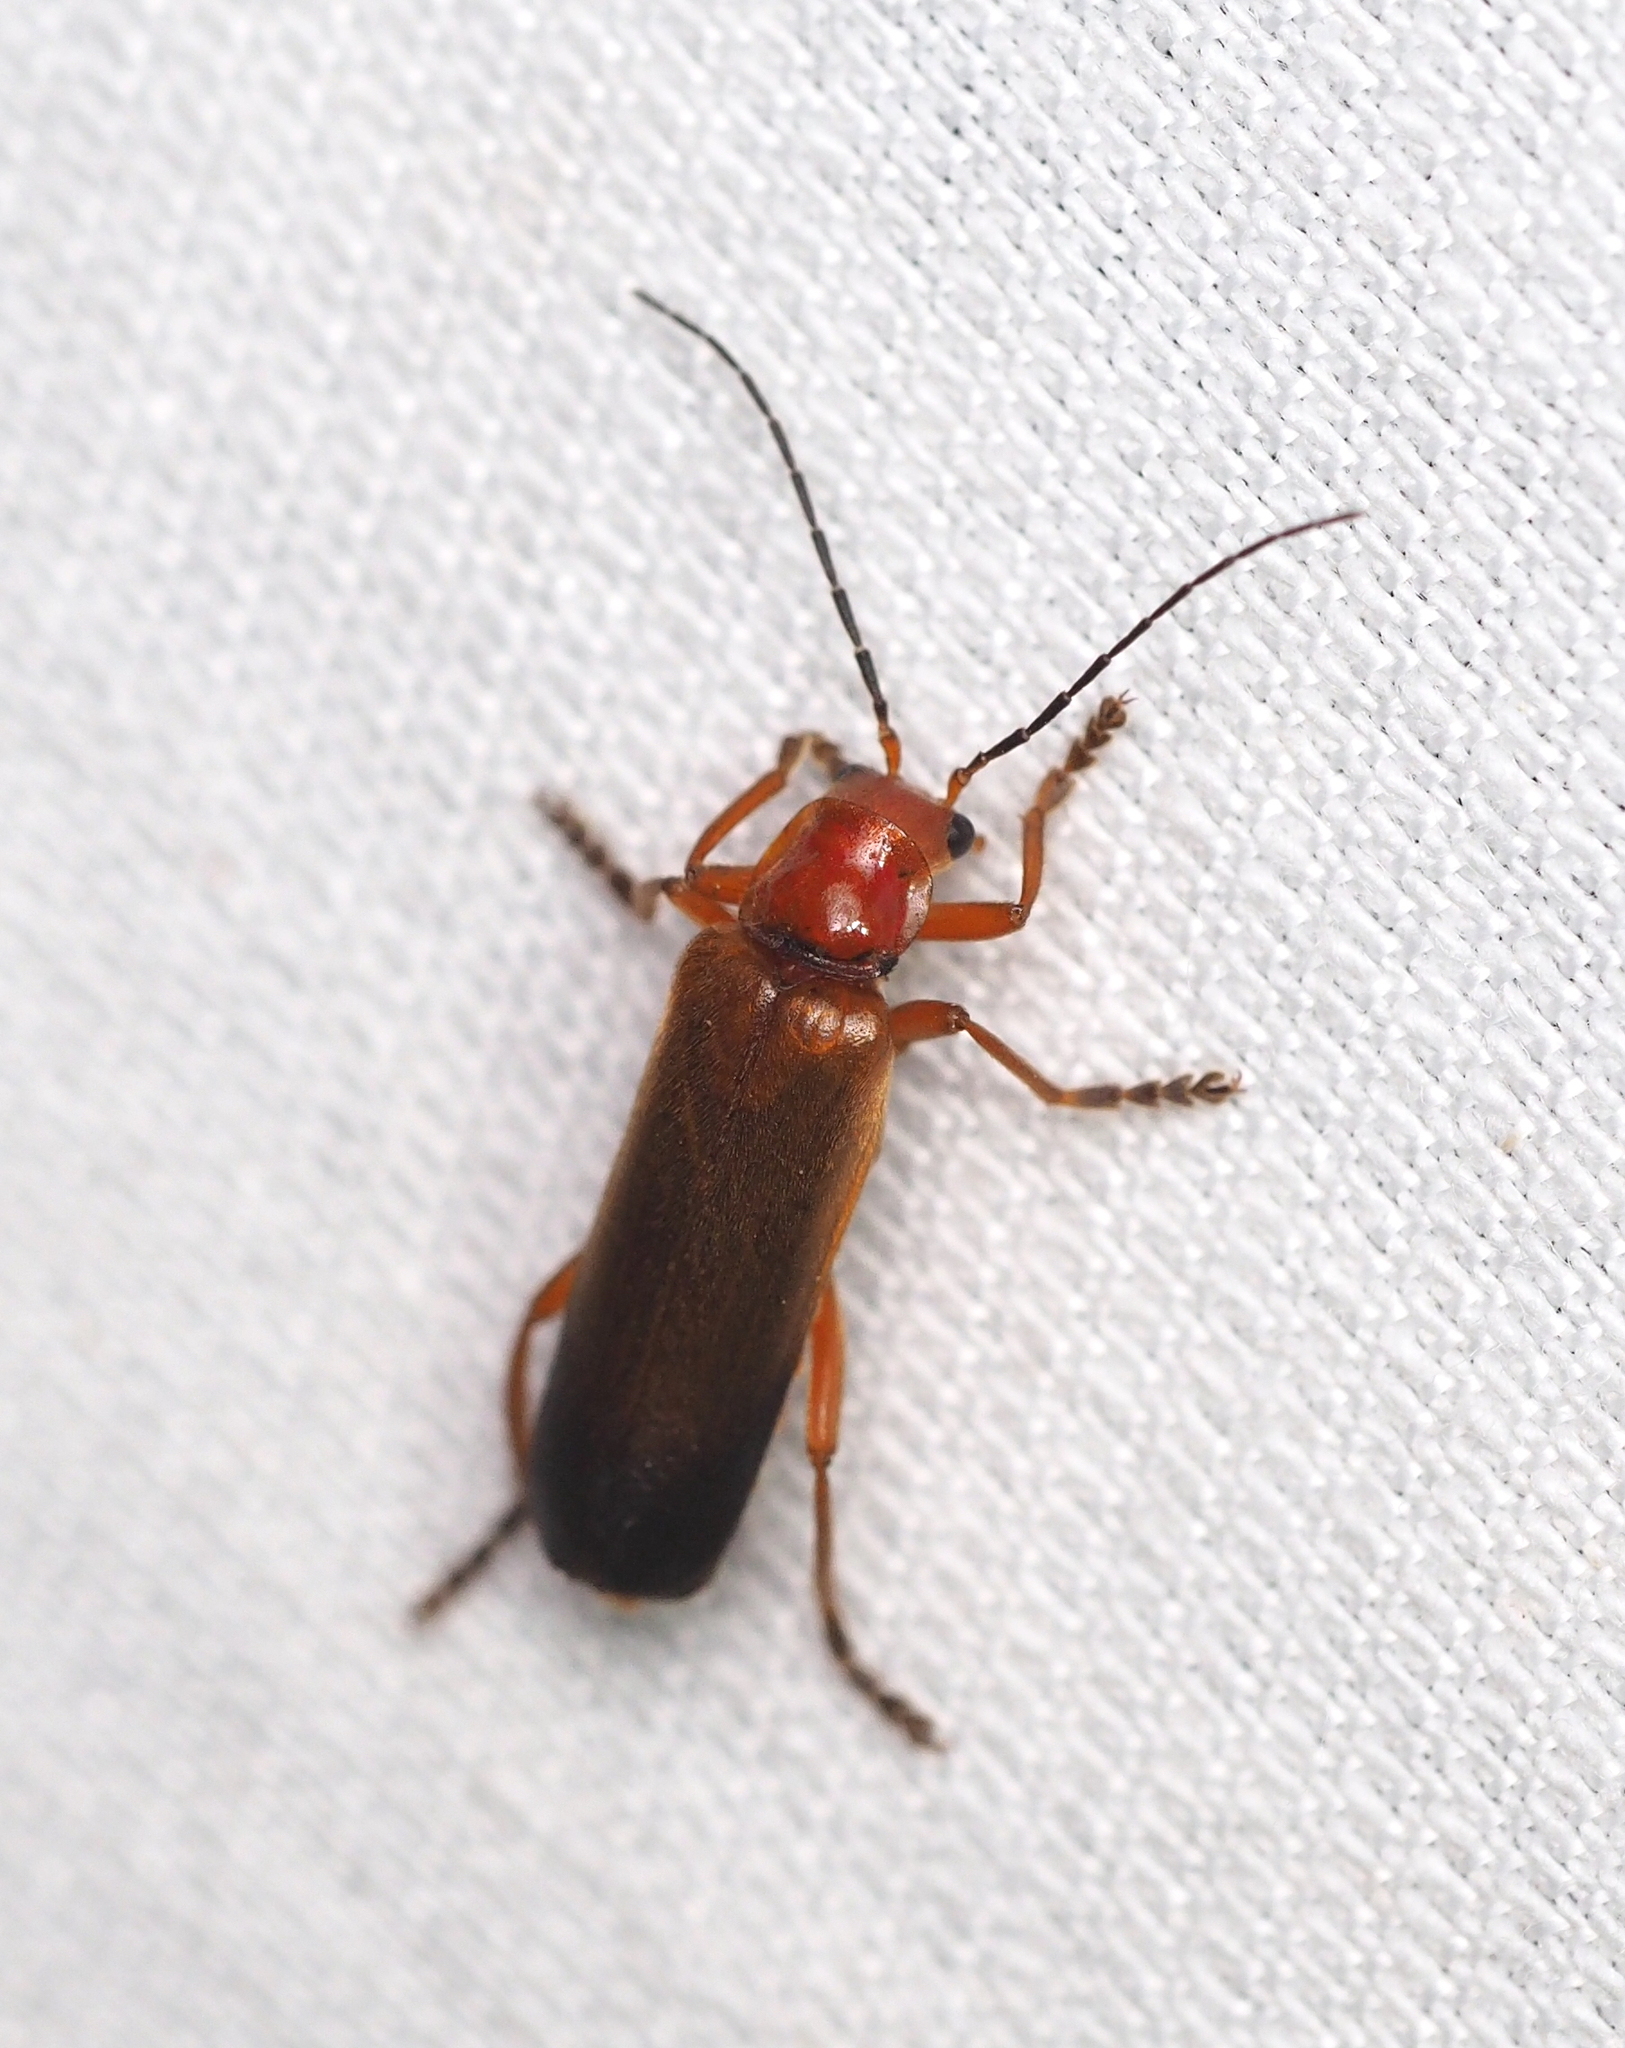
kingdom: Animalia
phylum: Arthropoda
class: Insecta
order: Coleoptera
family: Cantharidae
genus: Ancistronycha
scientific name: Ancistronycha erichsonii
